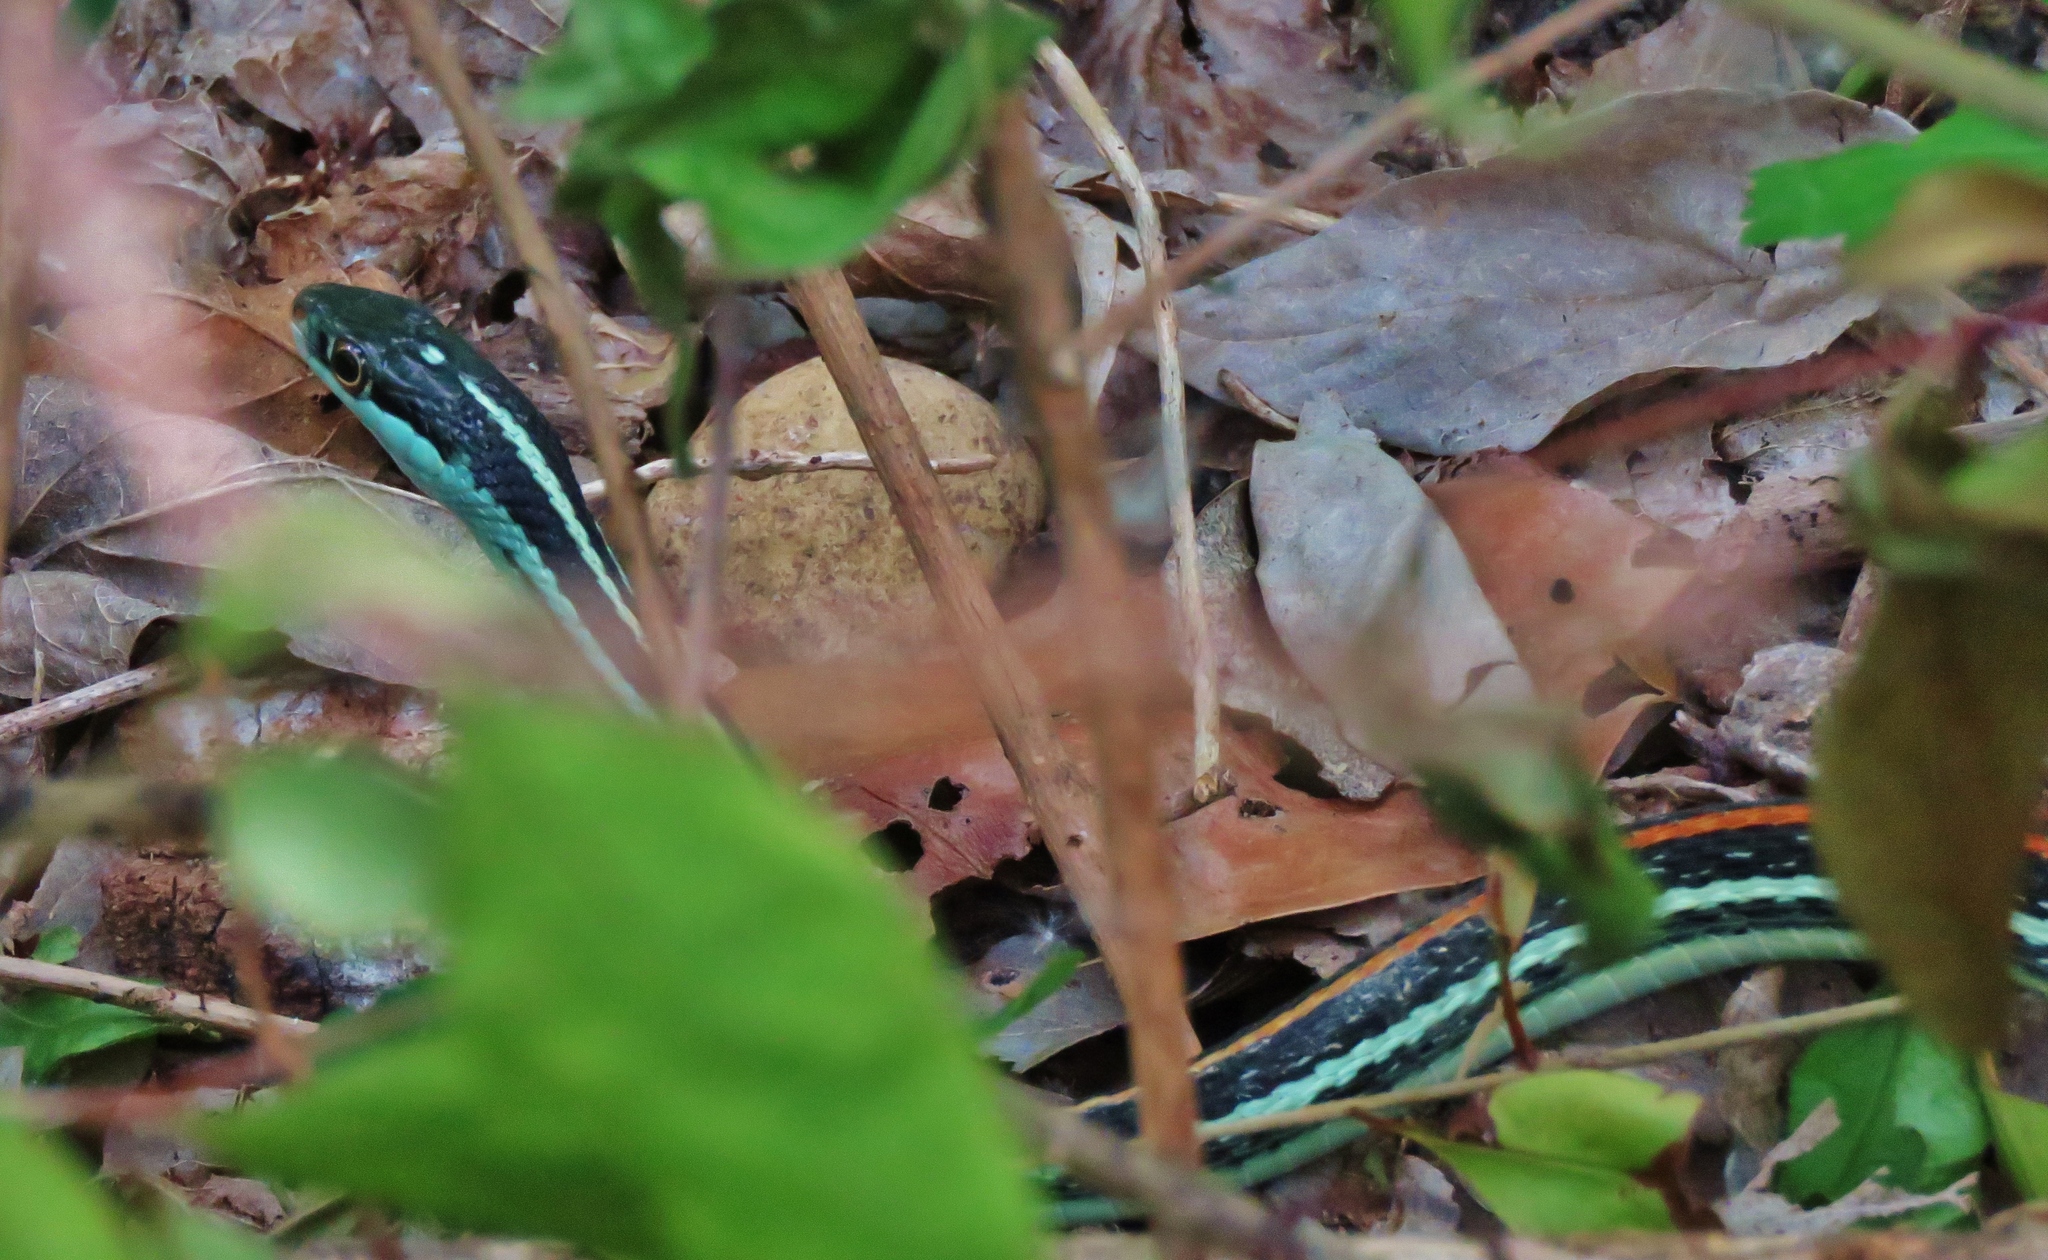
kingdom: Animalia
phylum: Chordata
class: Squamata
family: Colubridae
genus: Thamnophis
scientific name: Thamnophis proximus
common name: Western ribbon snake
